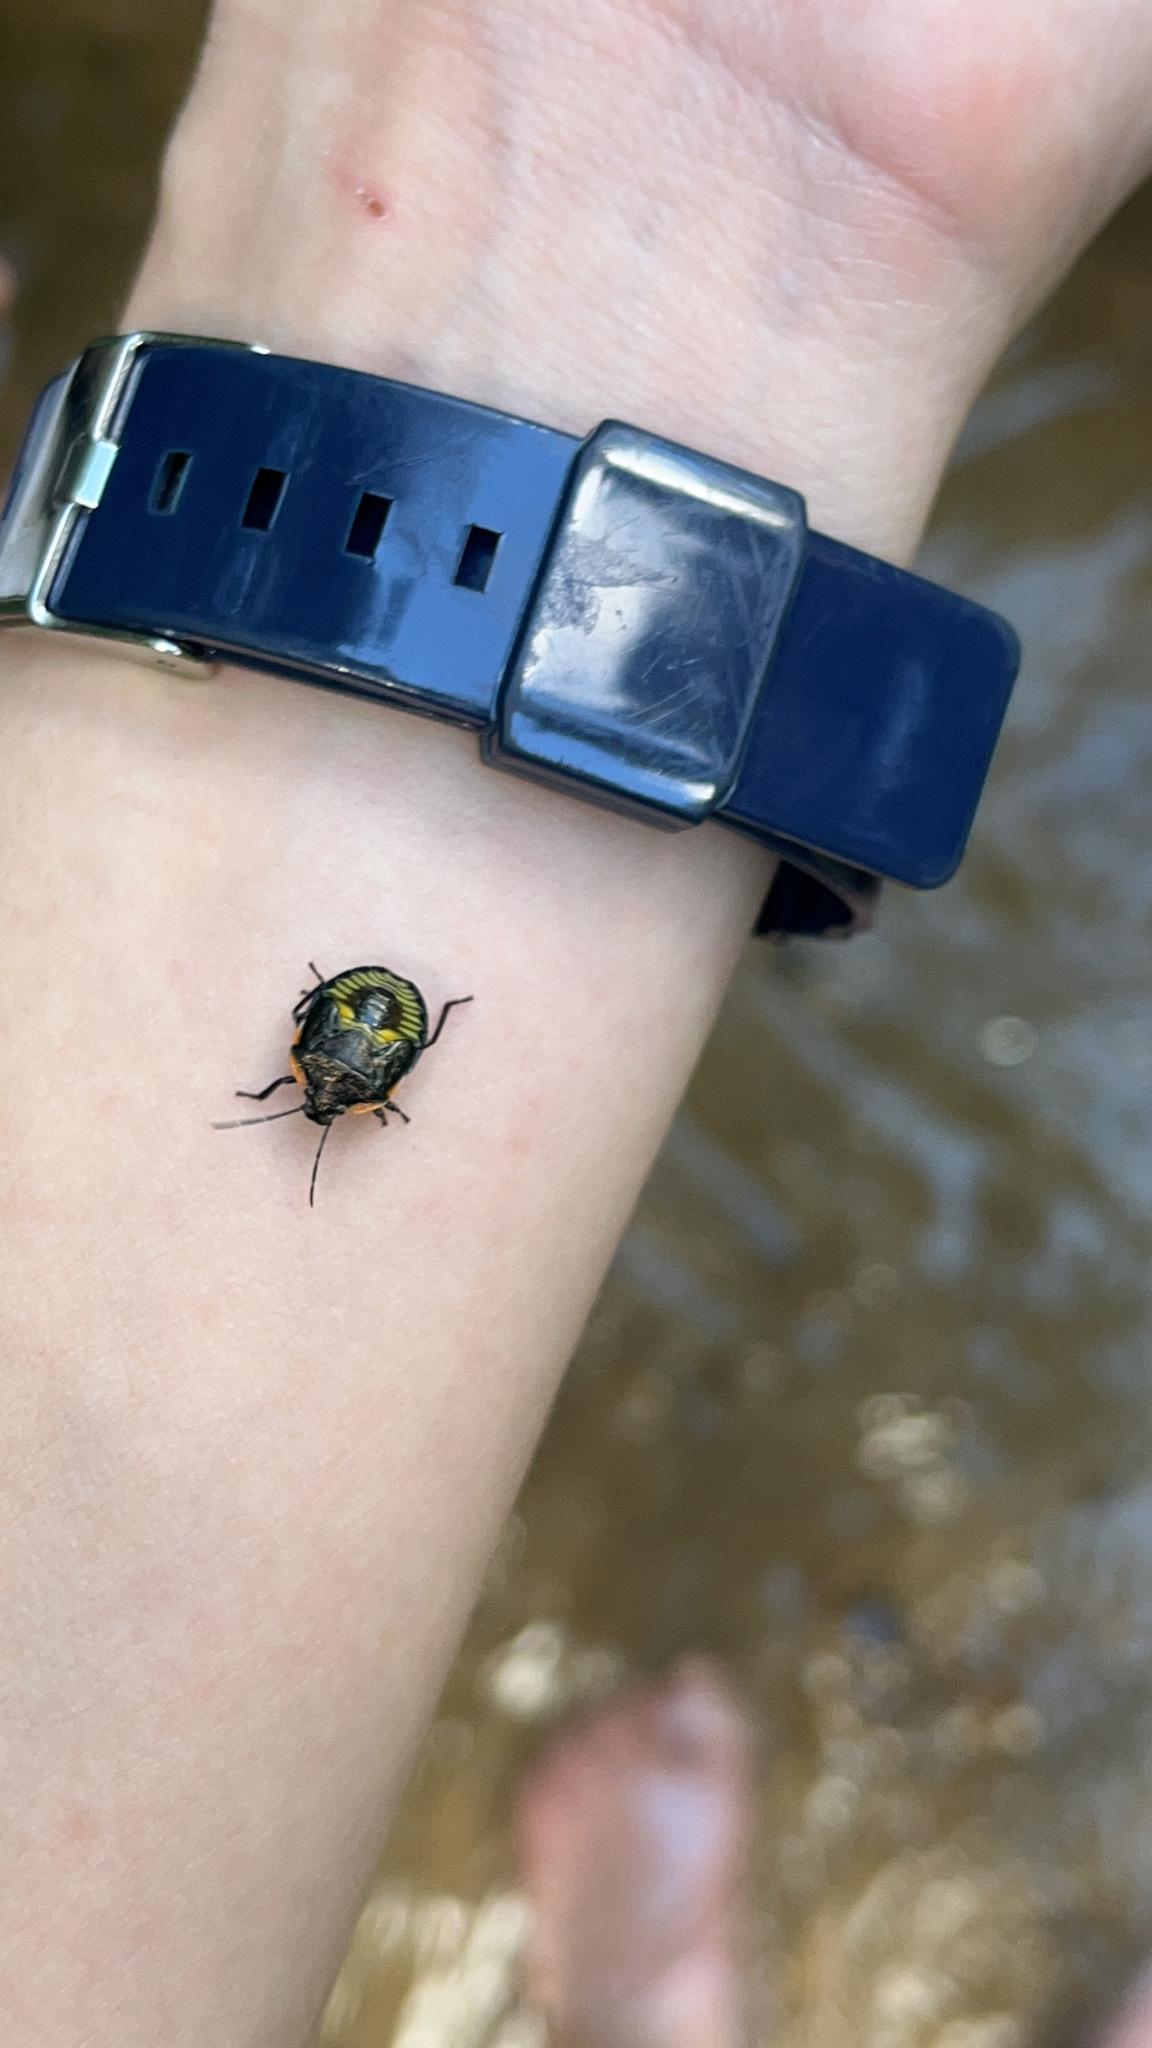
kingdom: Animalia
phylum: Arthropoda
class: Insecta
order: Hemiptera
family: Pentatomidae
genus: Chinavia
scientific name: Chinavia hilaris
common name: Green stink bug
